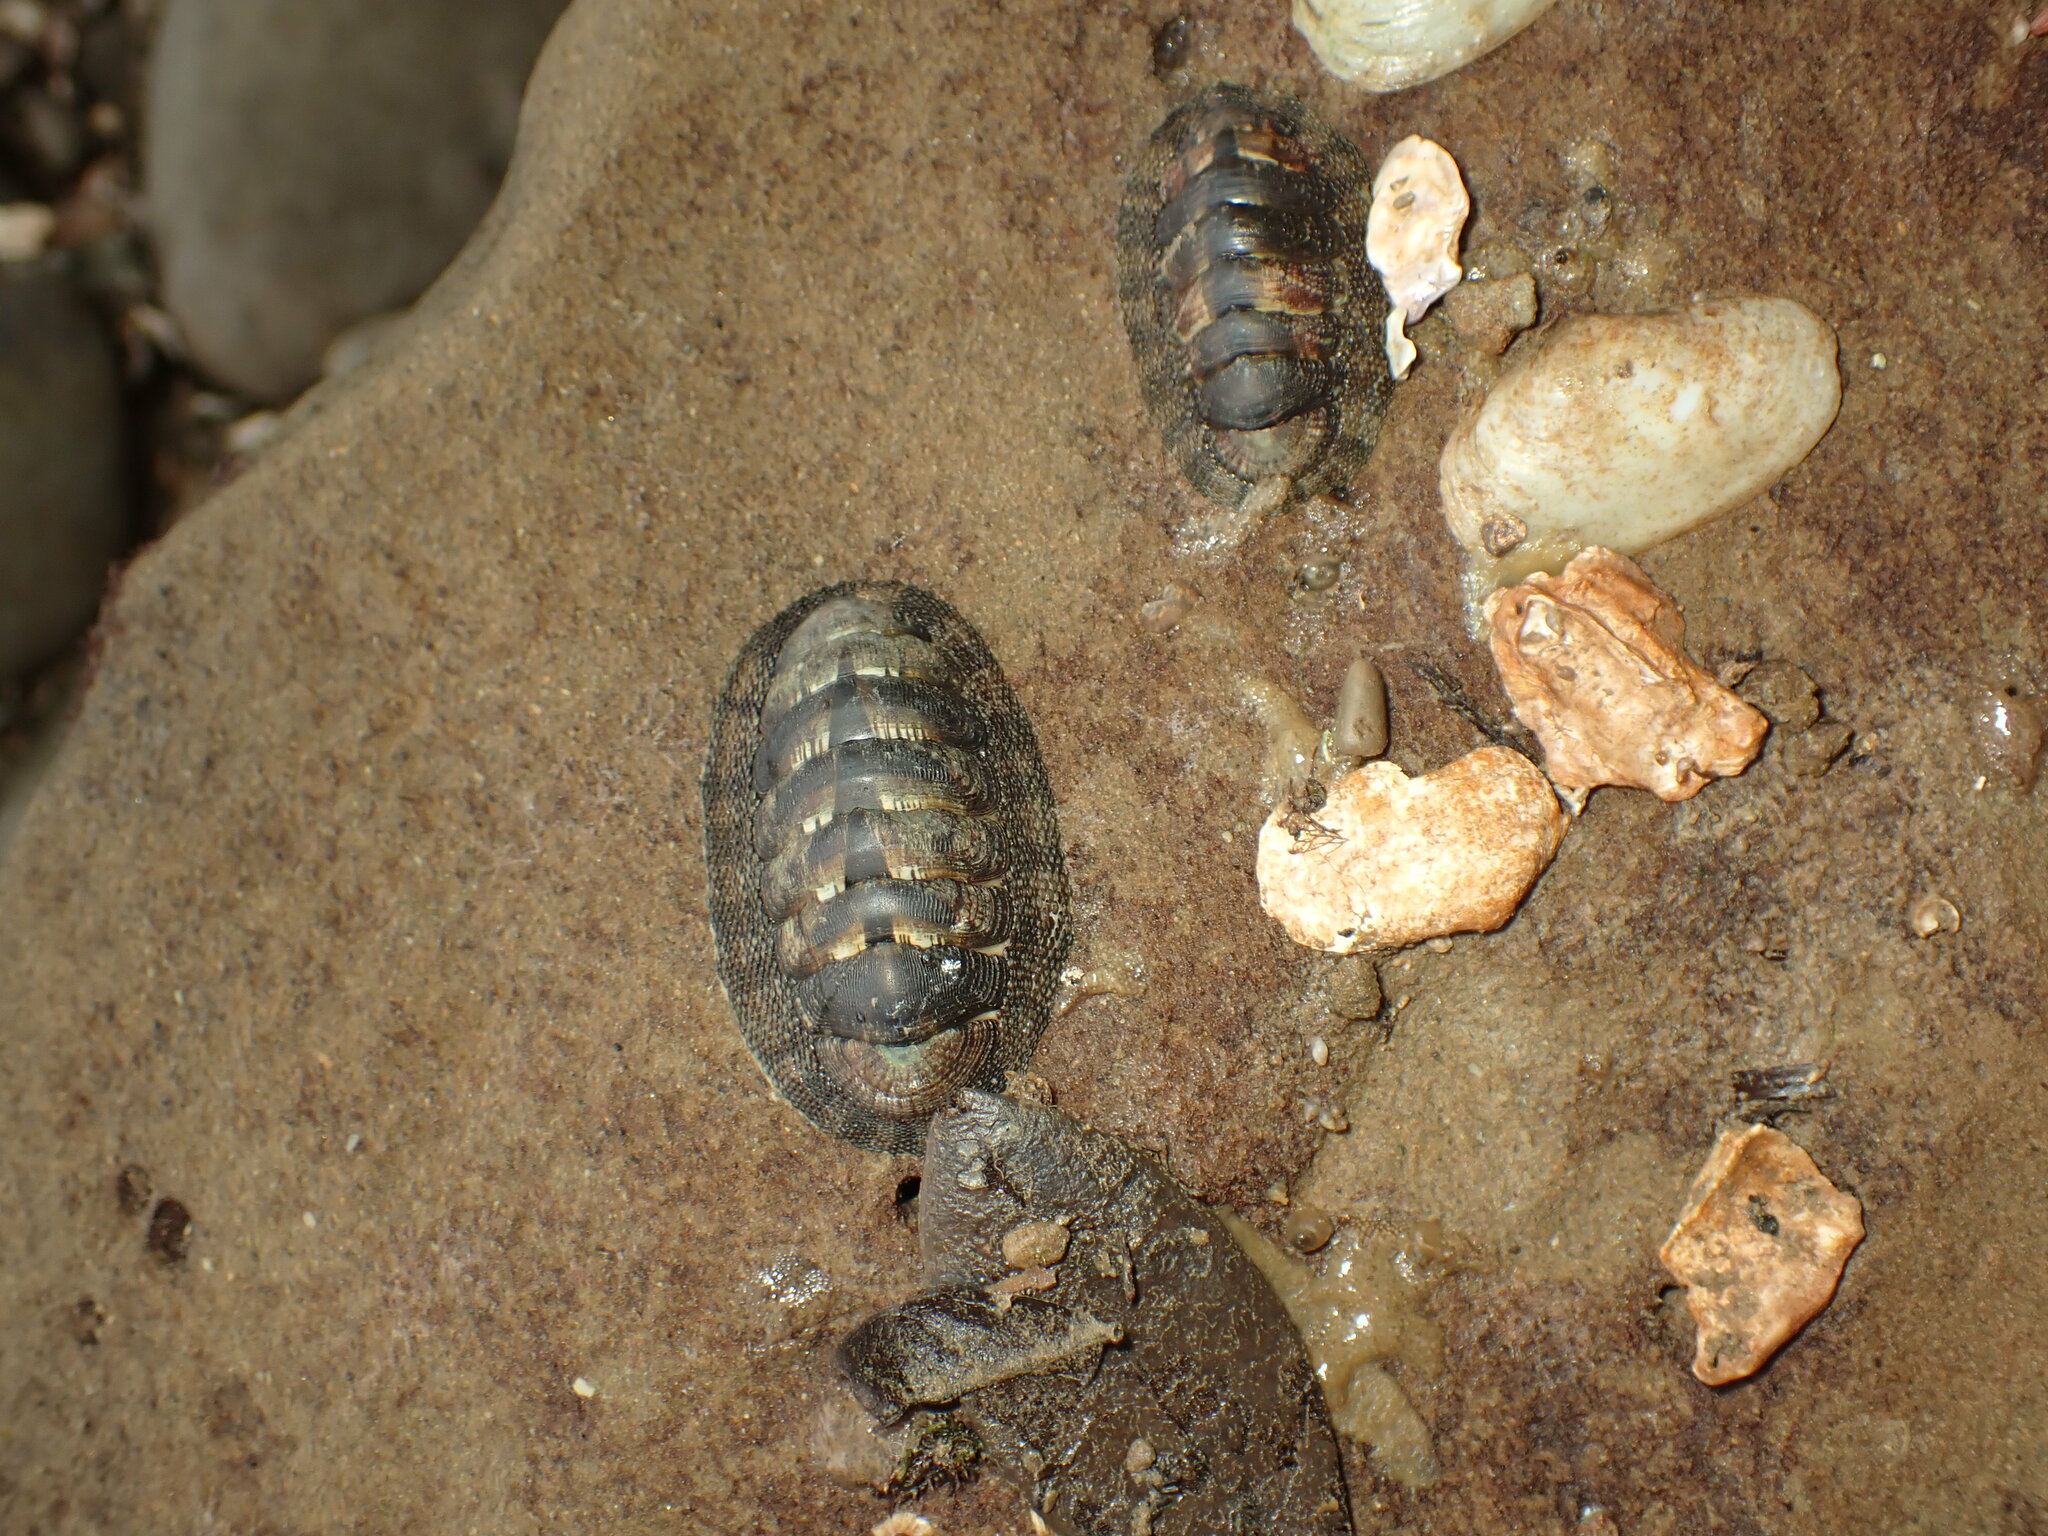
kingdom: Animalia
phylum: Mollusca
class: Polyplacophora
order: Chitonida
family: Chitonidae
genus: Sypharochiton
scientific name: Sypharochiton pelliserpentis
